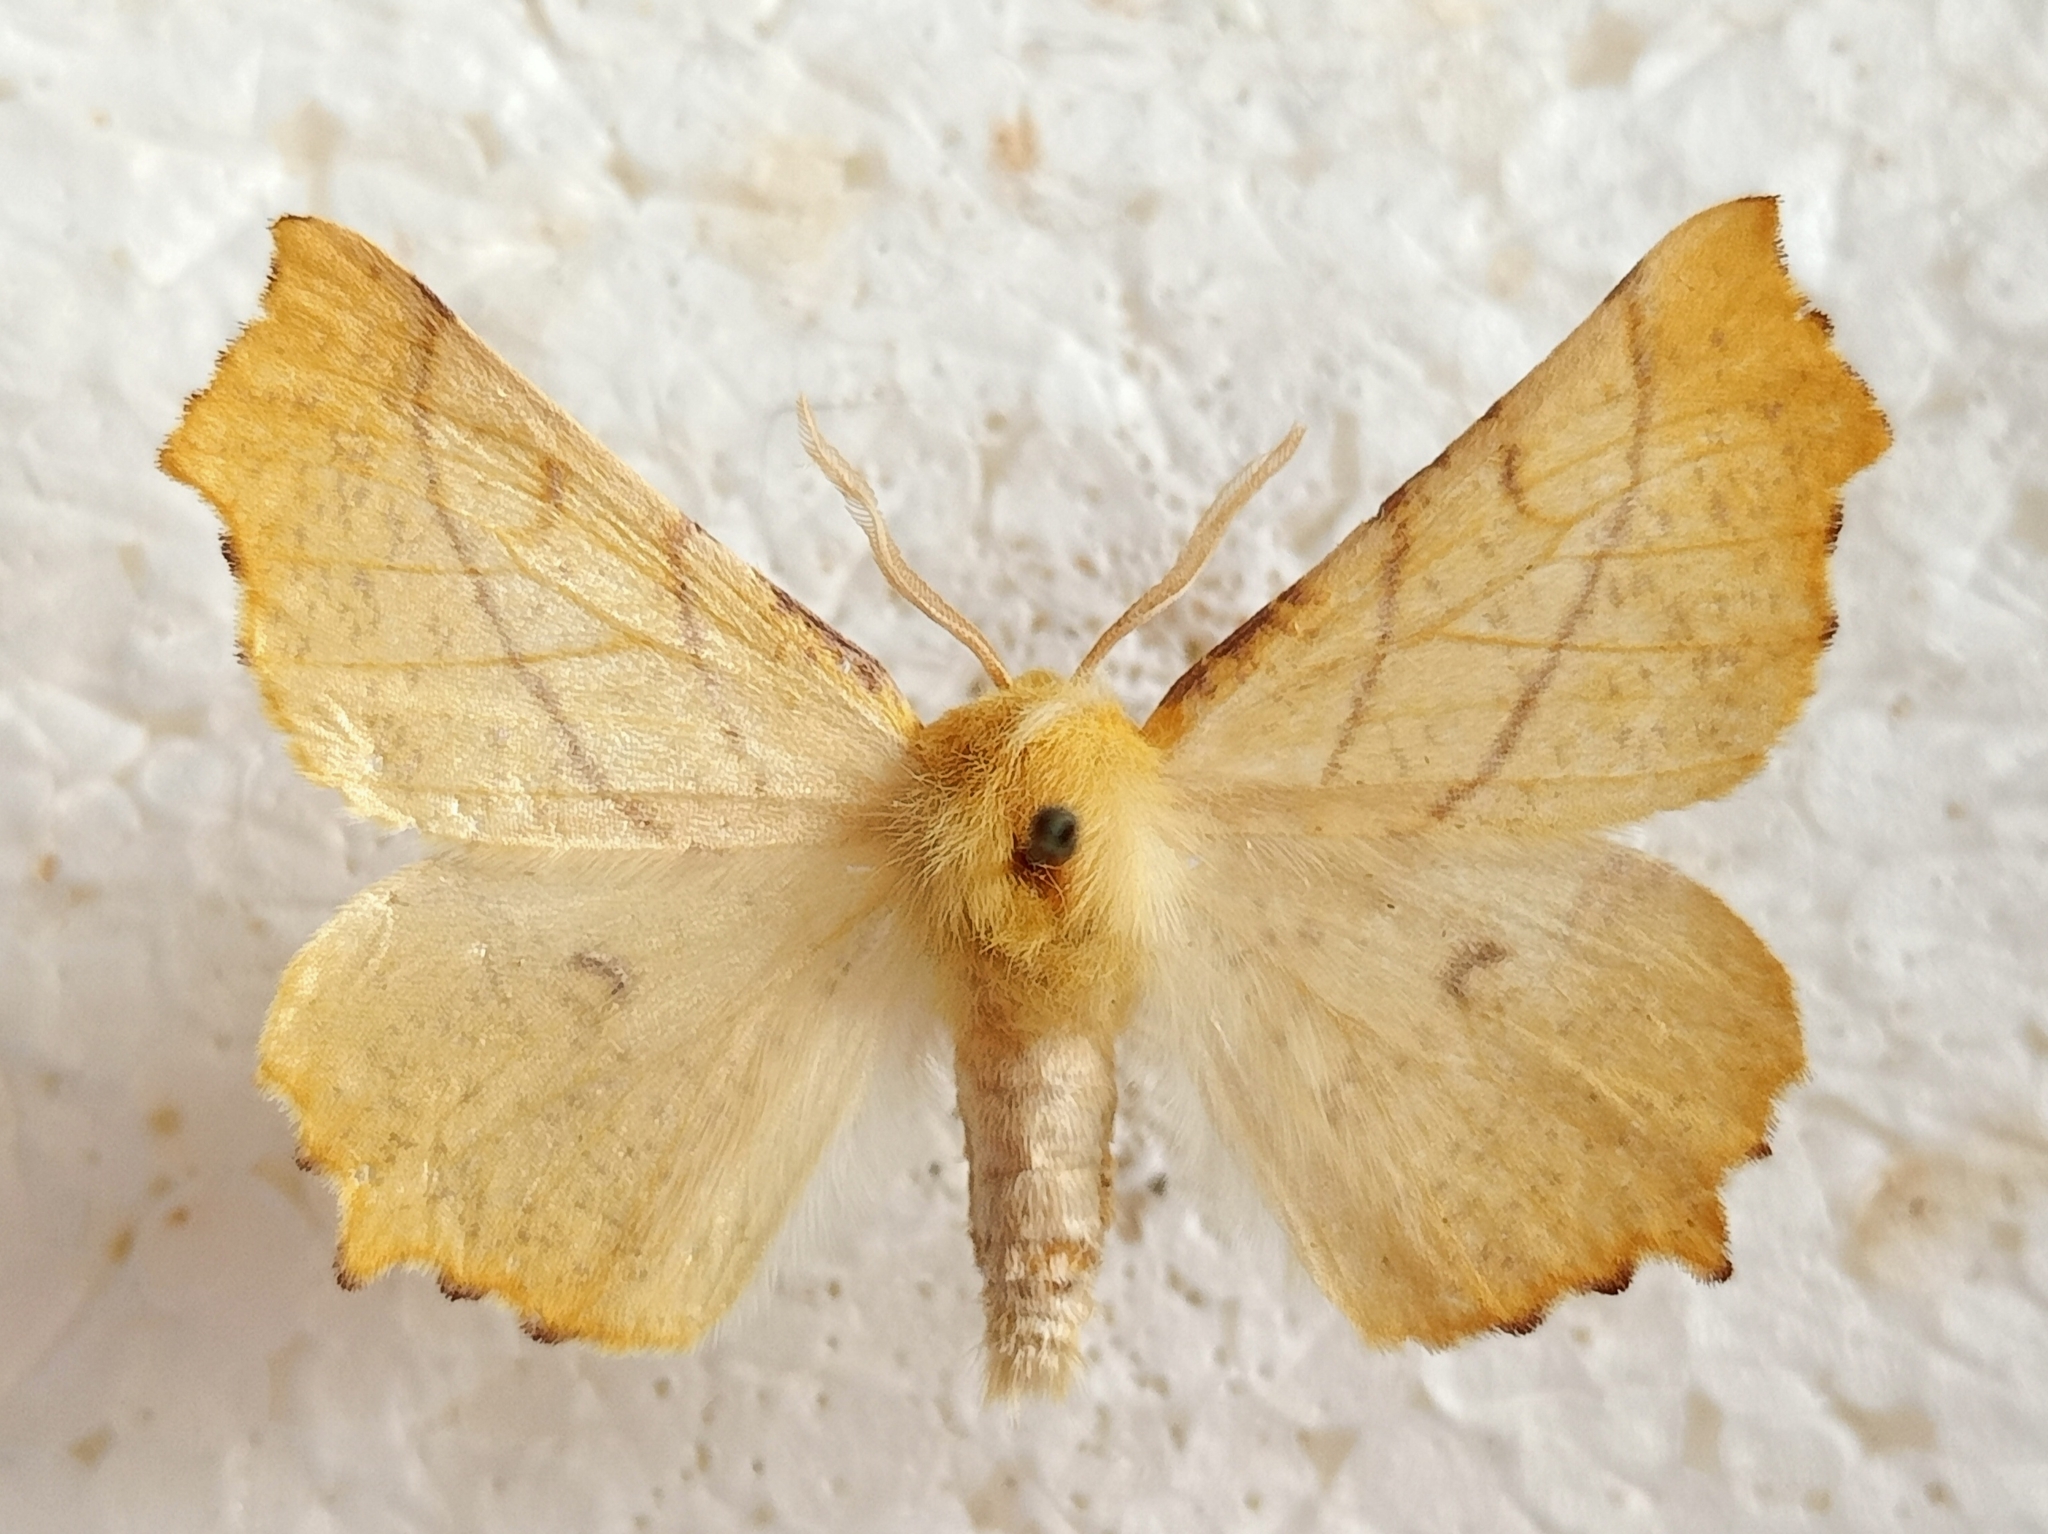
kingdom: Animalia
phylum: Arthropoda
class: Insecta
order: Lepidoptera
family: Geometridae
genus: Ennomos
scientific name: Ennomos alniaria
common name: Canary-shouldered thorn
